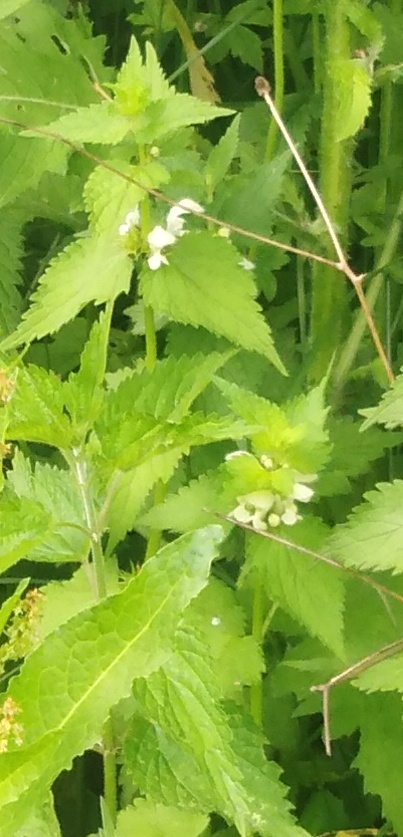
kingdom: Plantae
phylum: Tracheophyta
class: Magnoliopsida
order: Lamiales
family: Lamiaceae
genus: Lamium
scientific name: Lamium album
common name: White dead-nettle
